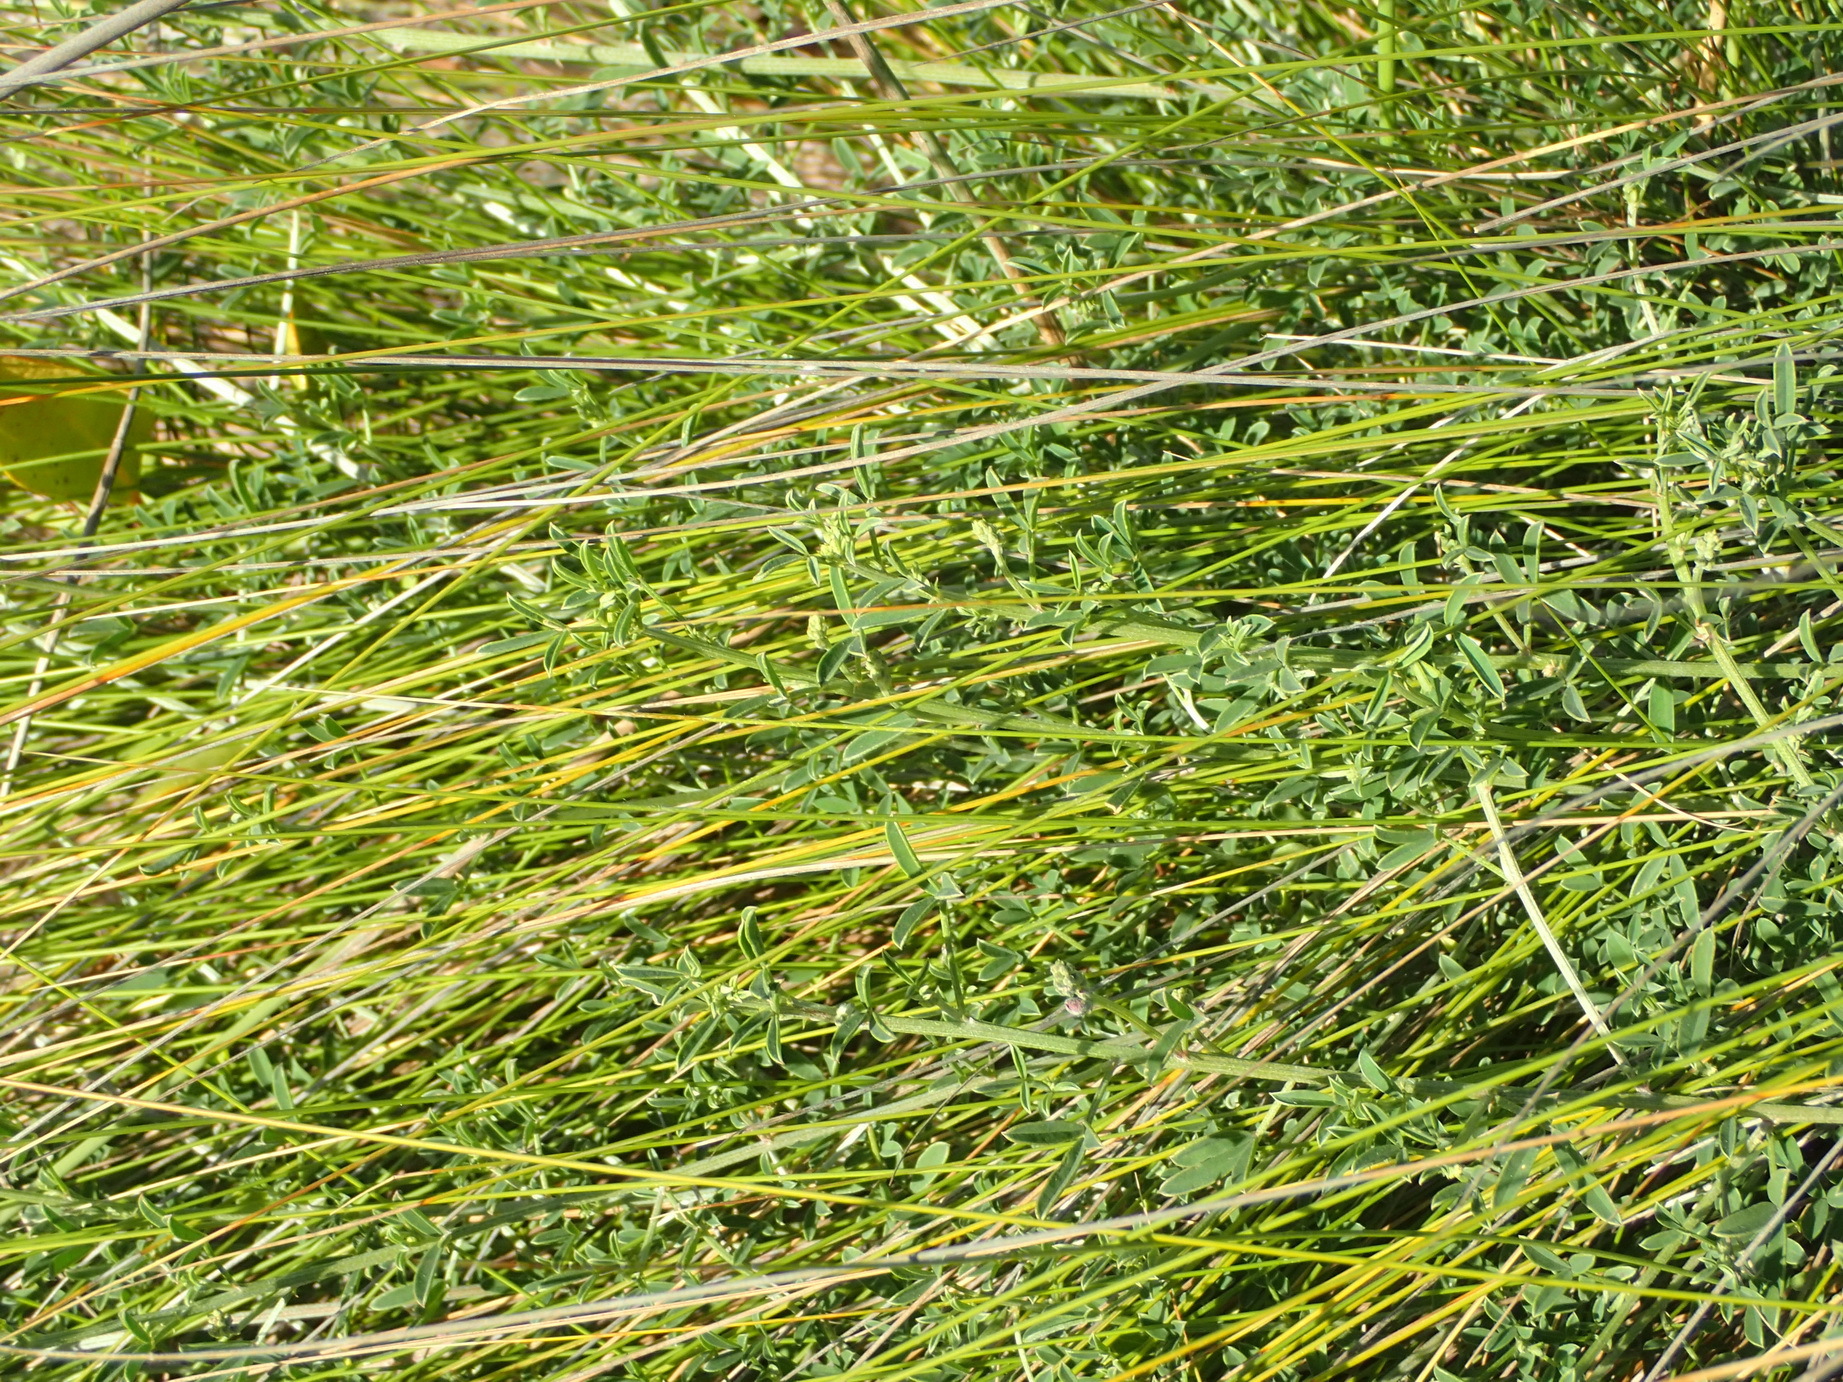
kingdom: Plantae
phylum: Tracheophyta
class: Magnoliopsida
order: Fabales
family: Fabaceae
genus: Indigofera
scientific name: Indigofera candicans
